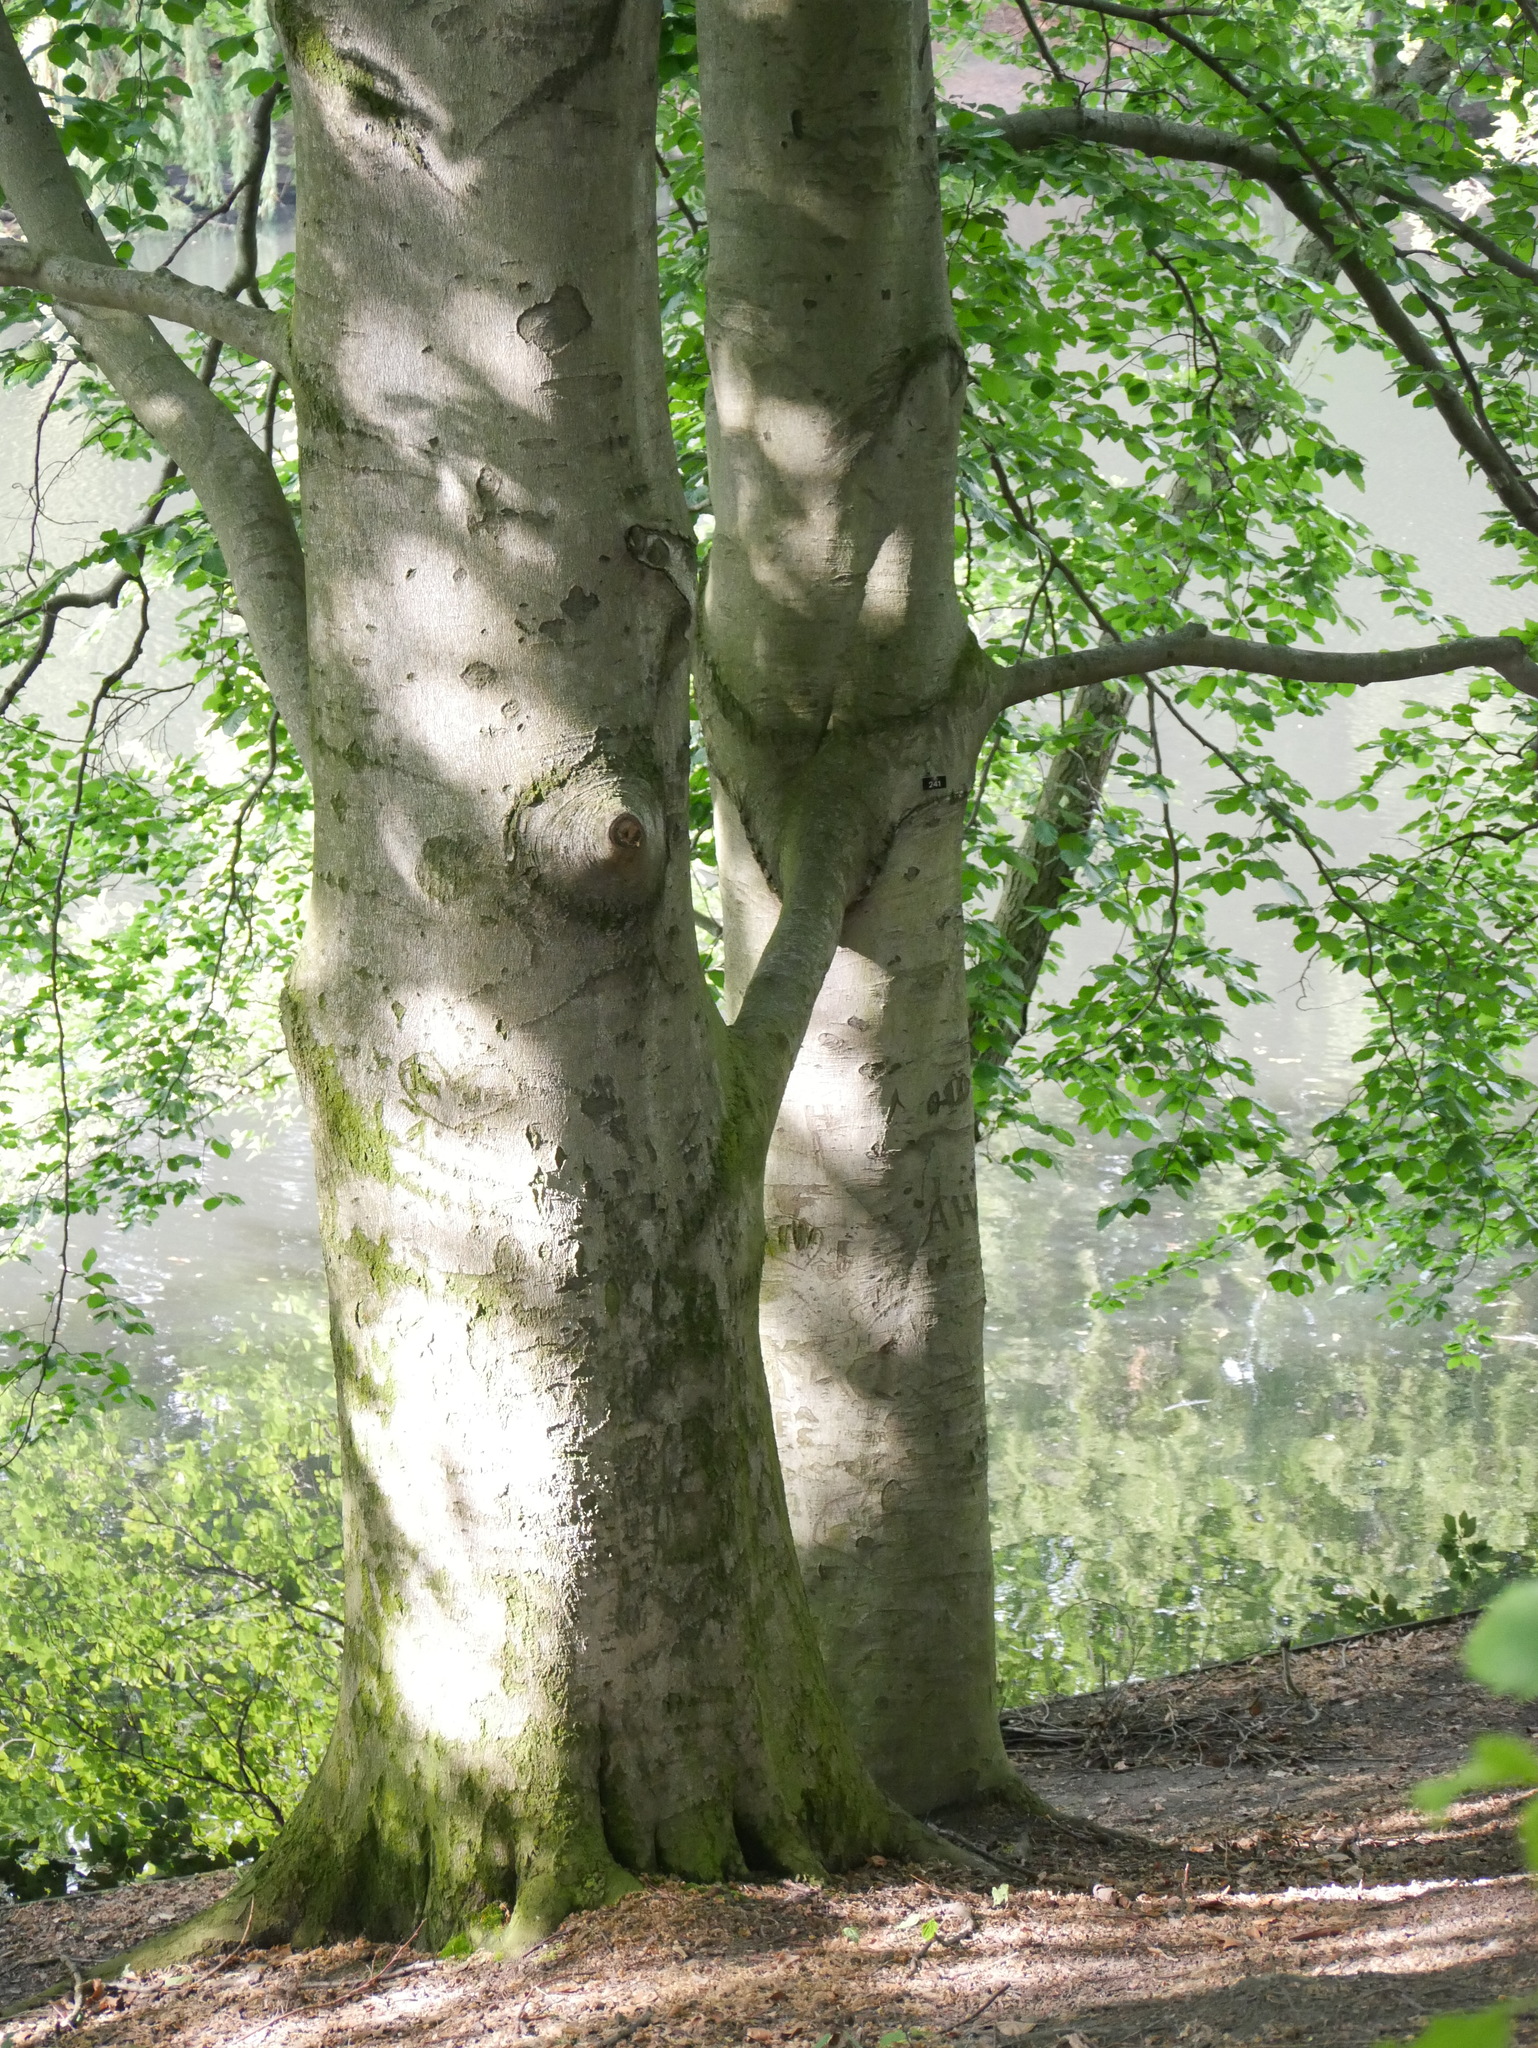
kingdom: Plantae
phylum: Tracheophyta
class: Magnoliopsida
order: Fagales
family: Fagaceae
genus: Fagus
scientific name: Fagus sylvatica
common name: Beech
